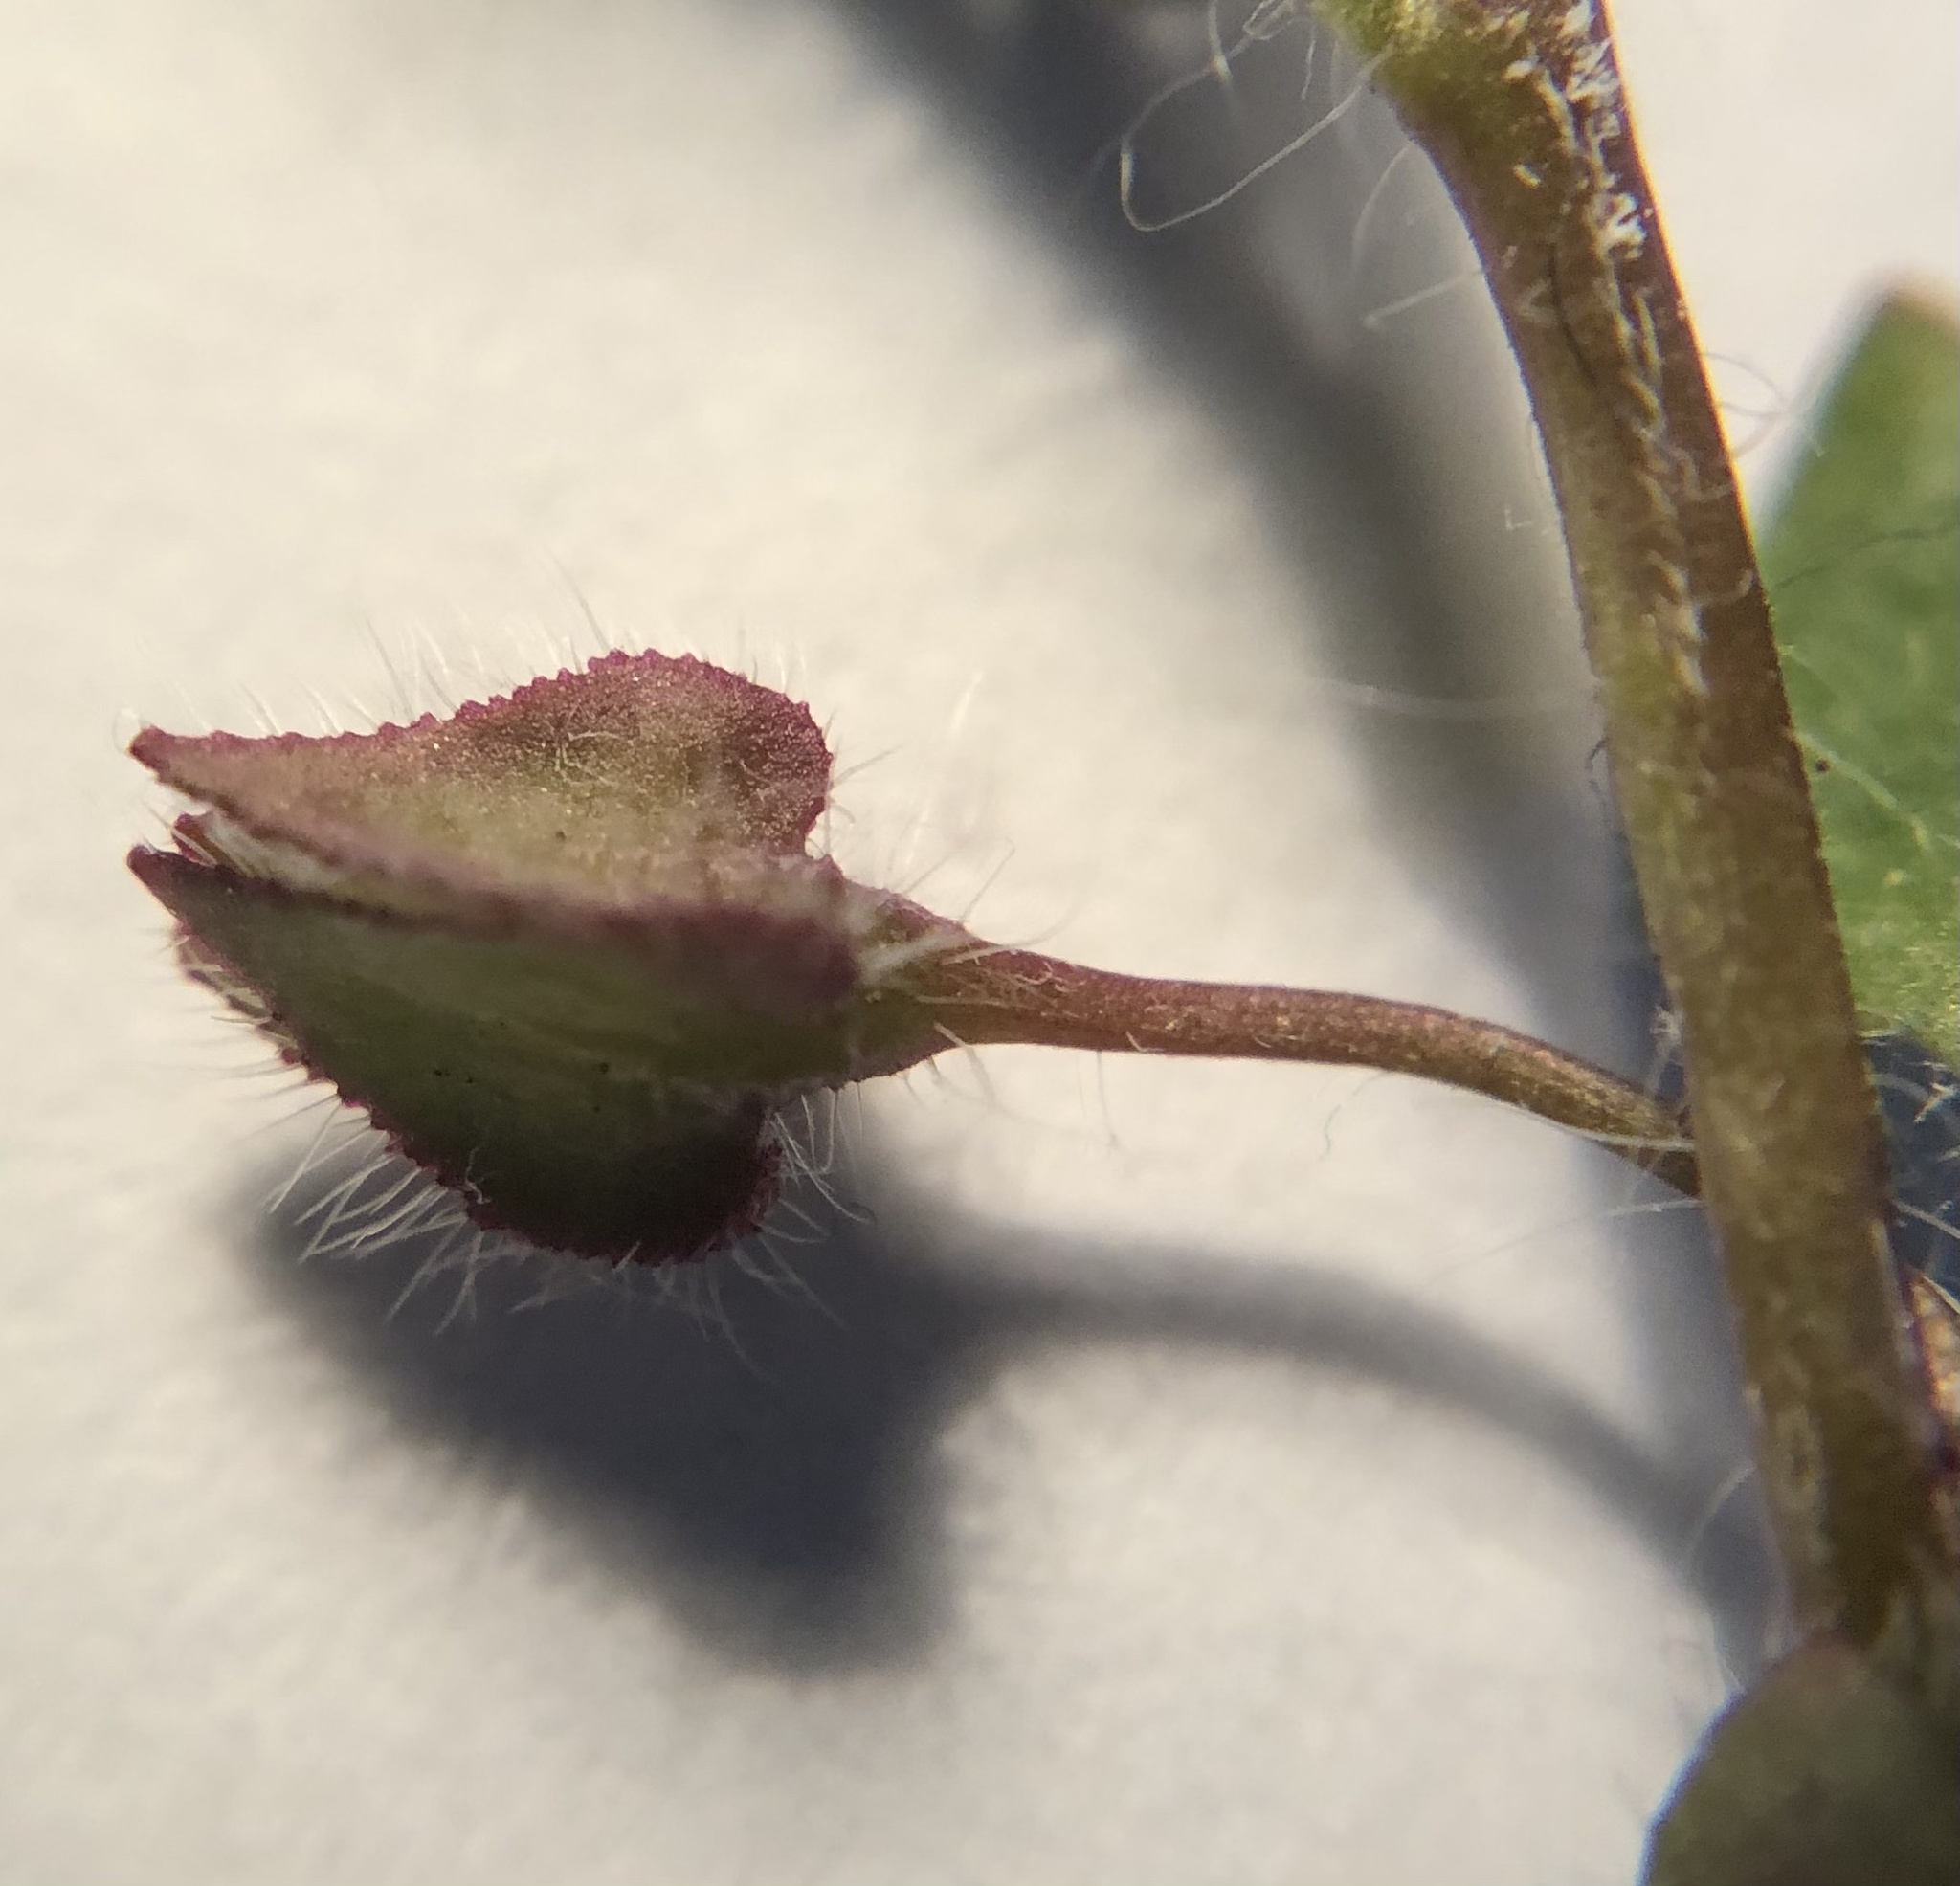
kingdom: Plantae
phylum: Tracheophyta
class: Magnoliopsida
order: Lamiales
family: Plantaginaceae
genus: Veronica
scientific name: Veronica sublobata
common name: False ivy-leaved speedwell
